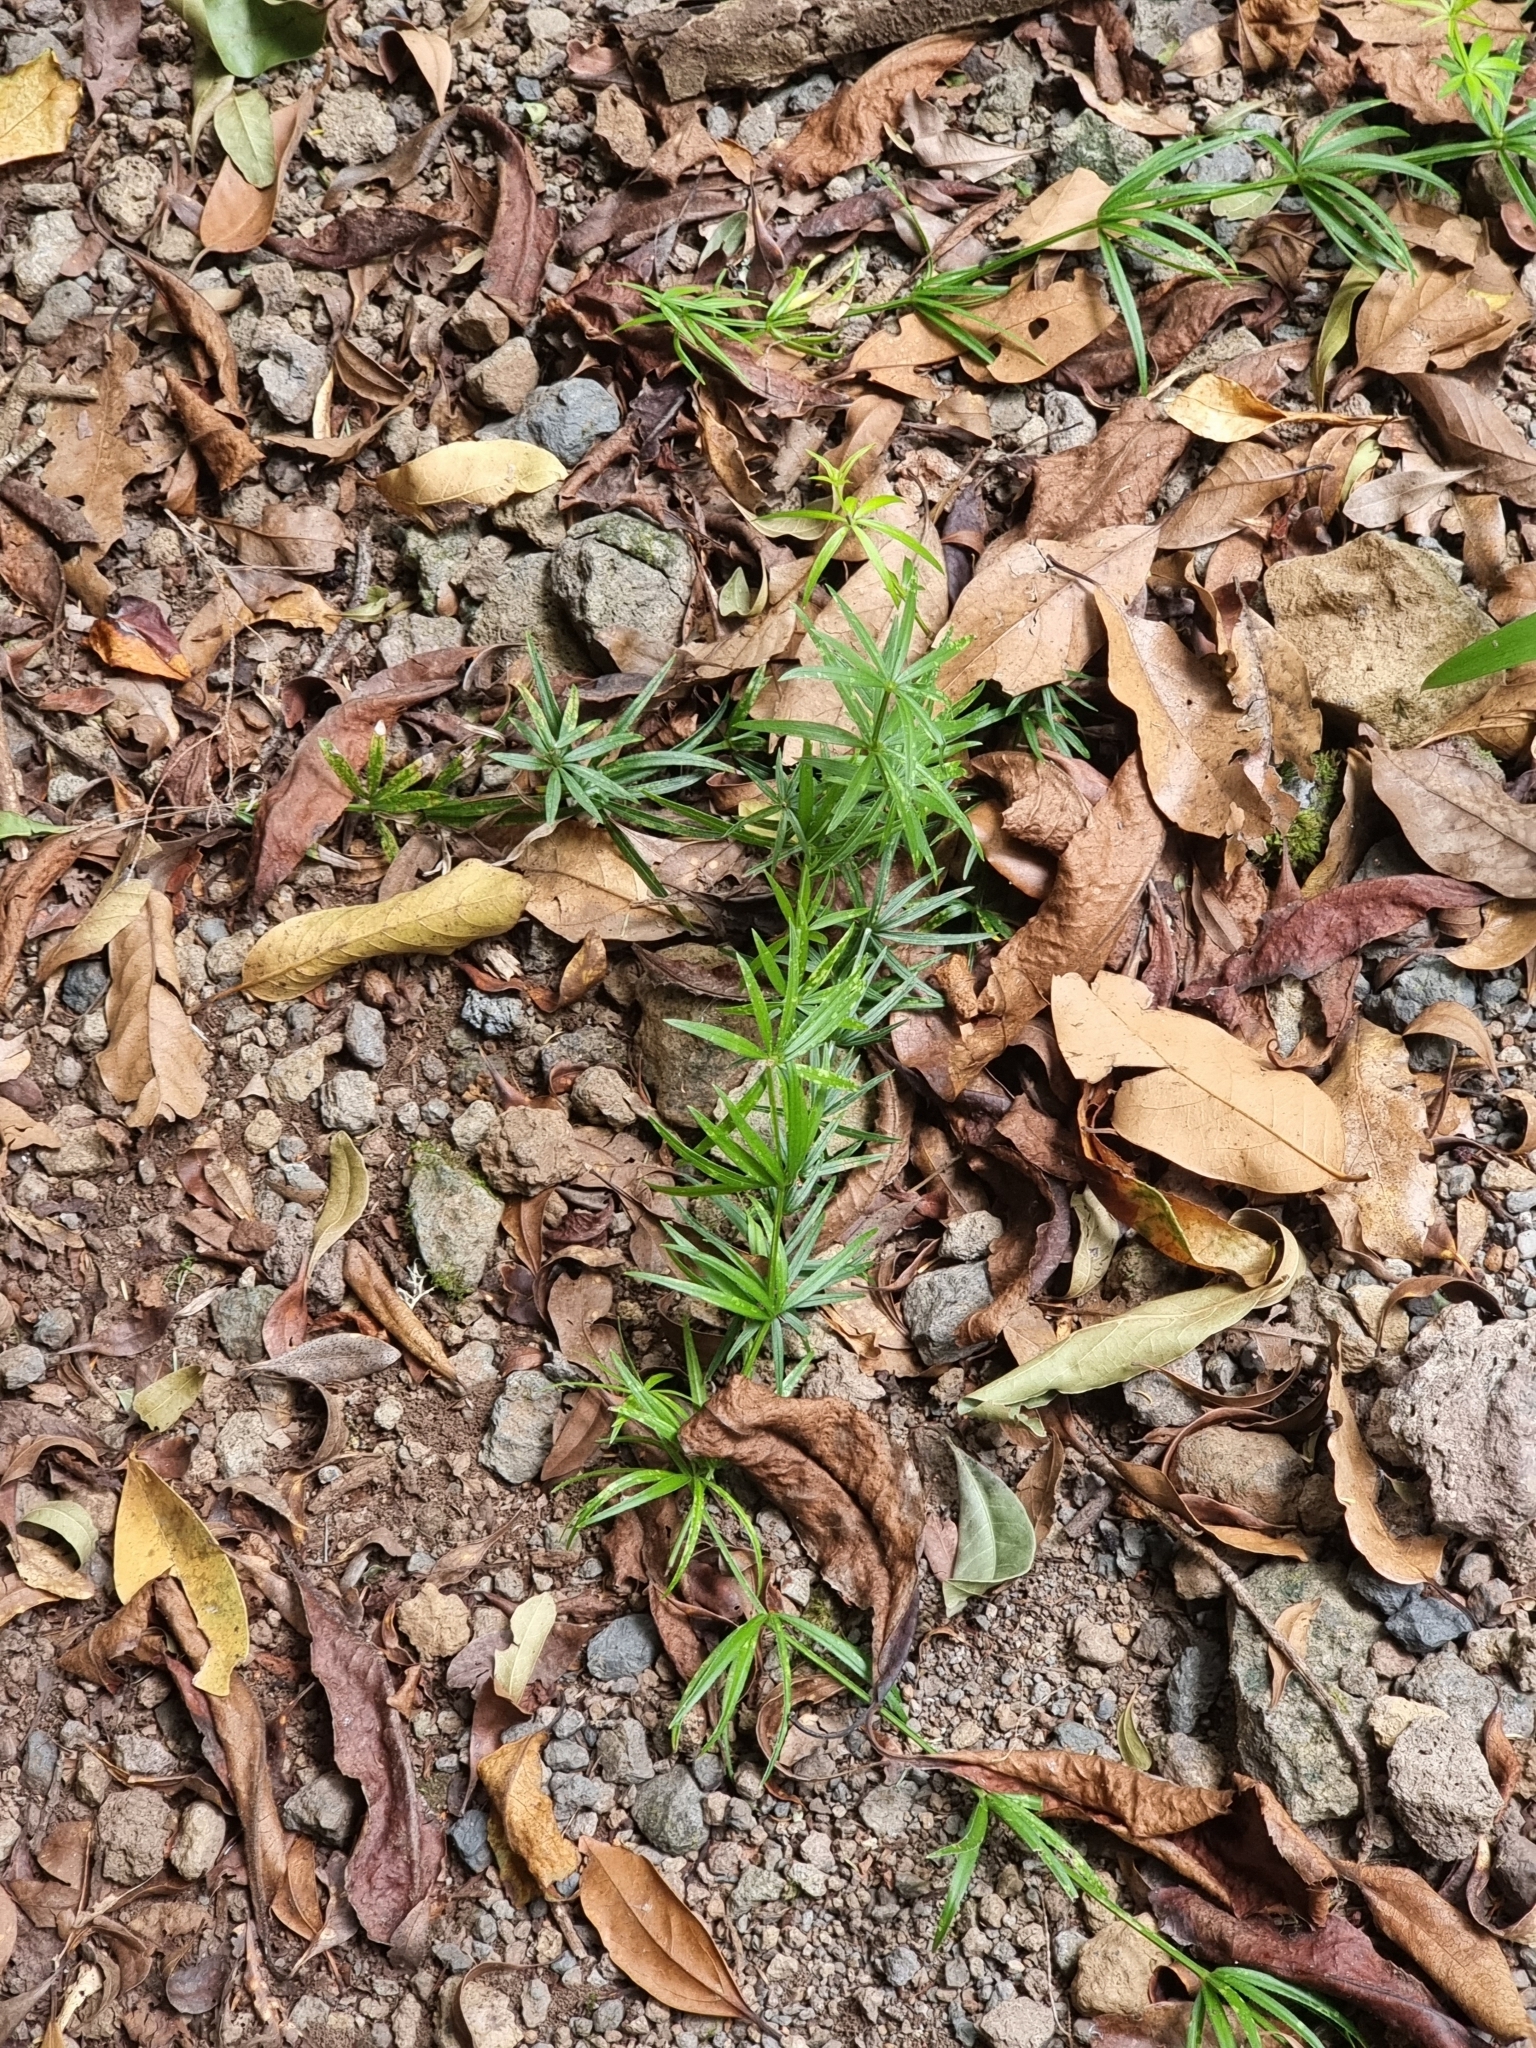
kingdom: Plantae
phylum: Tracheophyta
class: Magnoliopsida
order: Gentianales
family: Rubiaceae
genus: Rubia
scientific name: Rubia occidens
